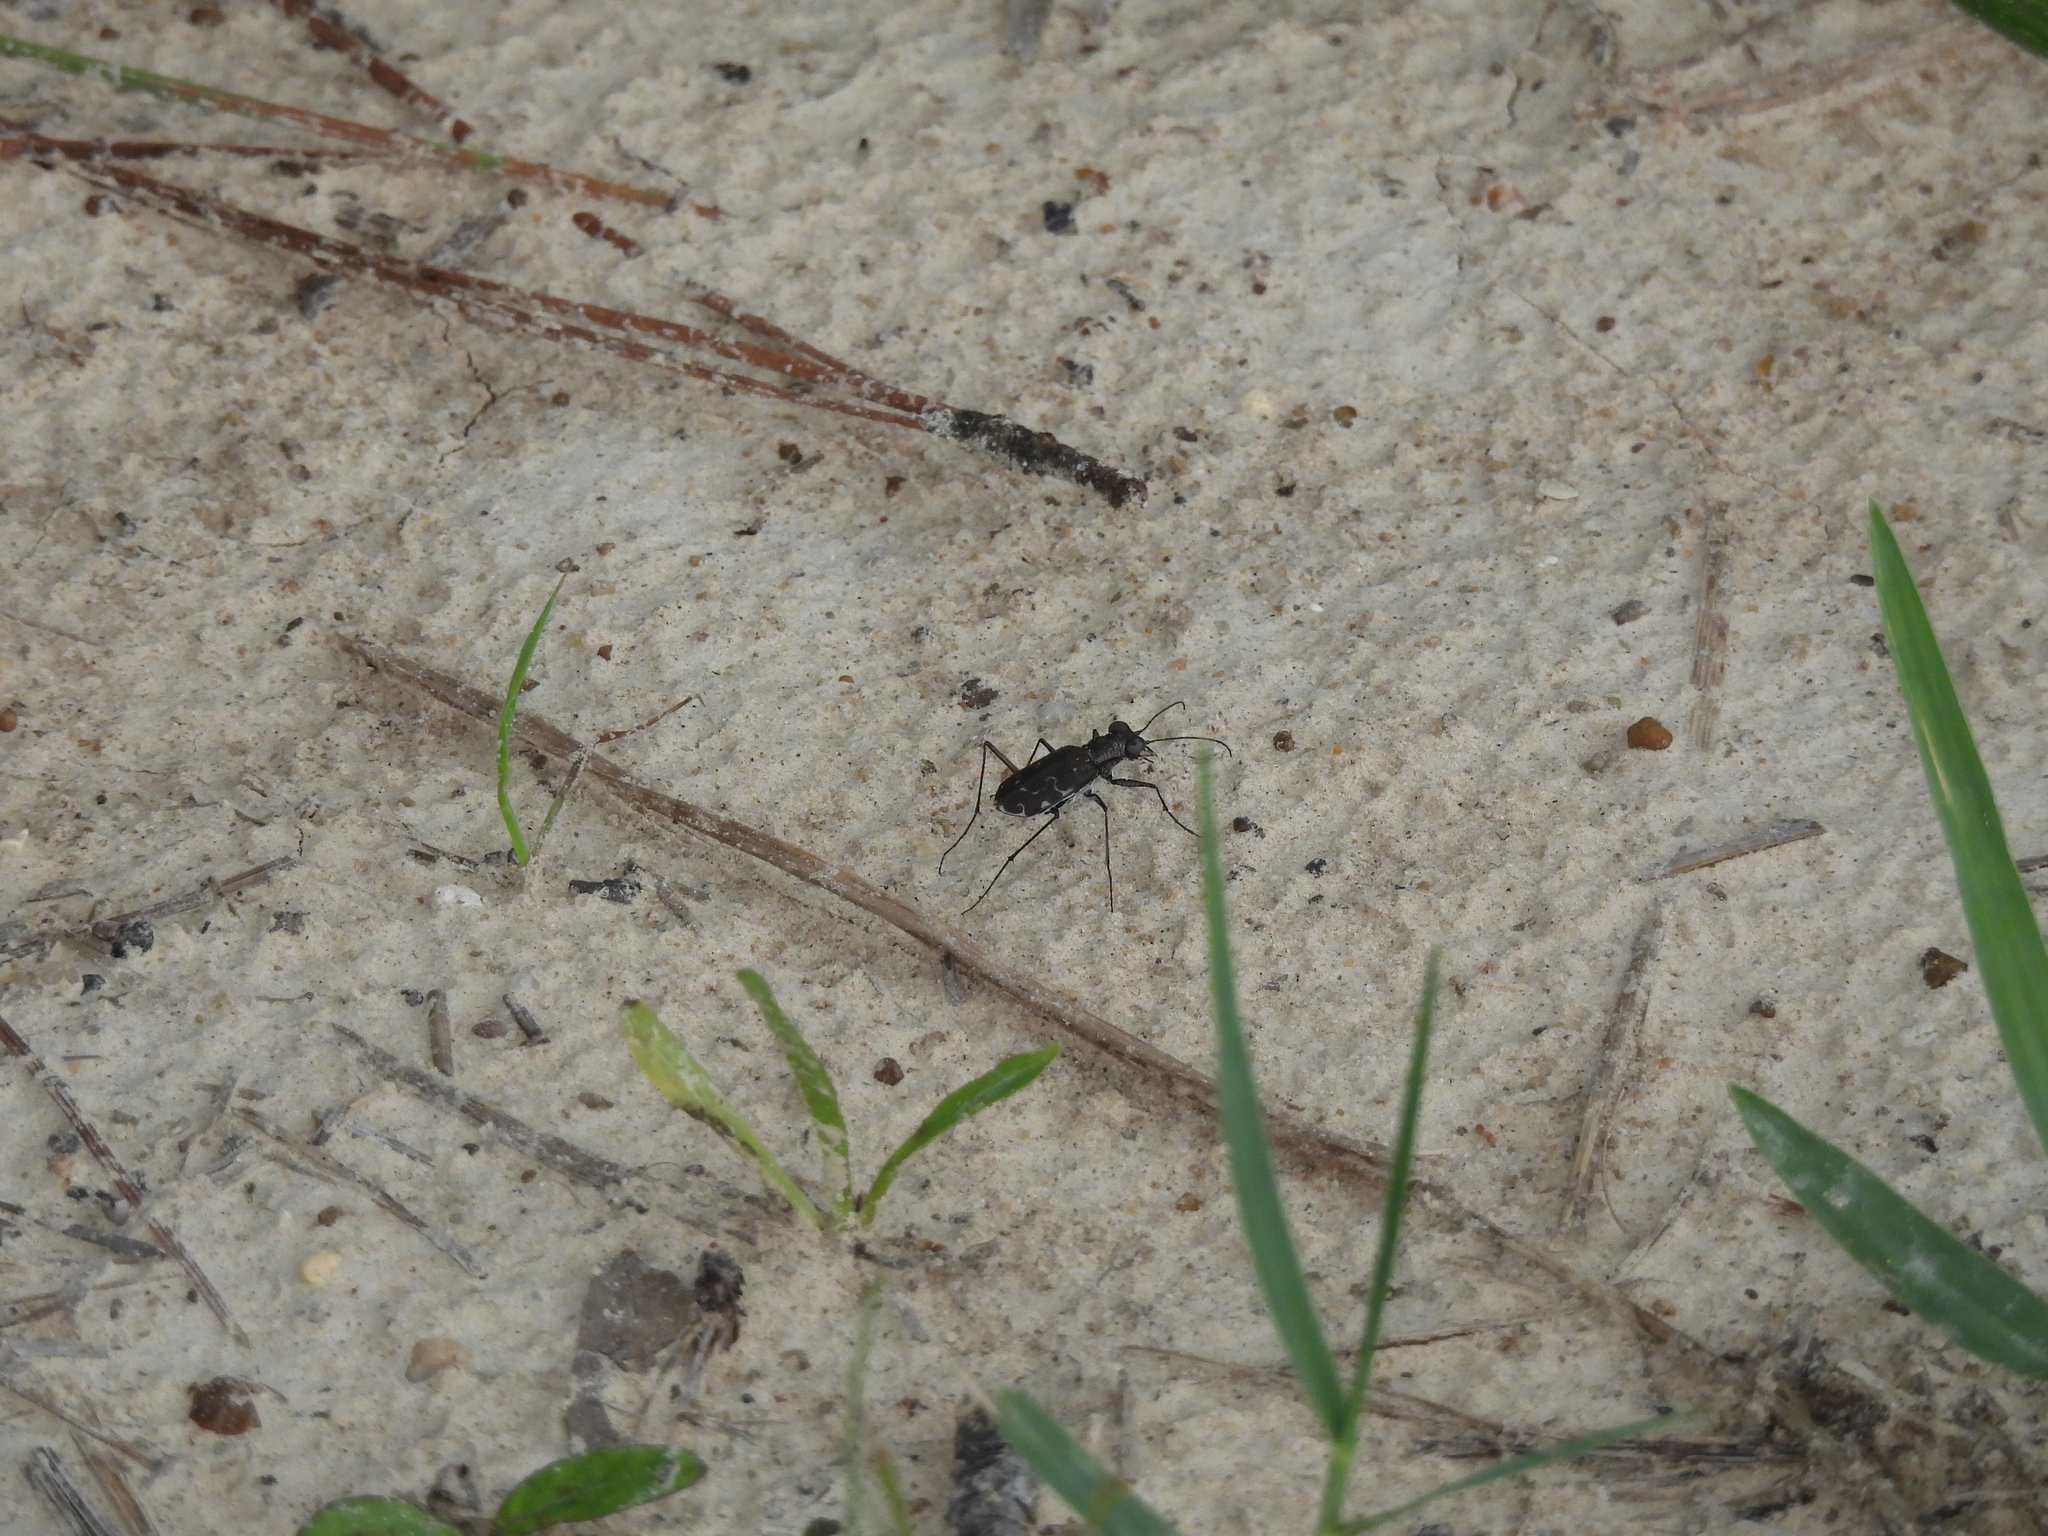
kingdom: Animalia
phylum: Arthropoda
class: Insecta
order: Coleoptera
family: Carabidae
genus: Cicindela
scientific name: Cicindela trifasciata
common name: Mudflat tiger beetle
